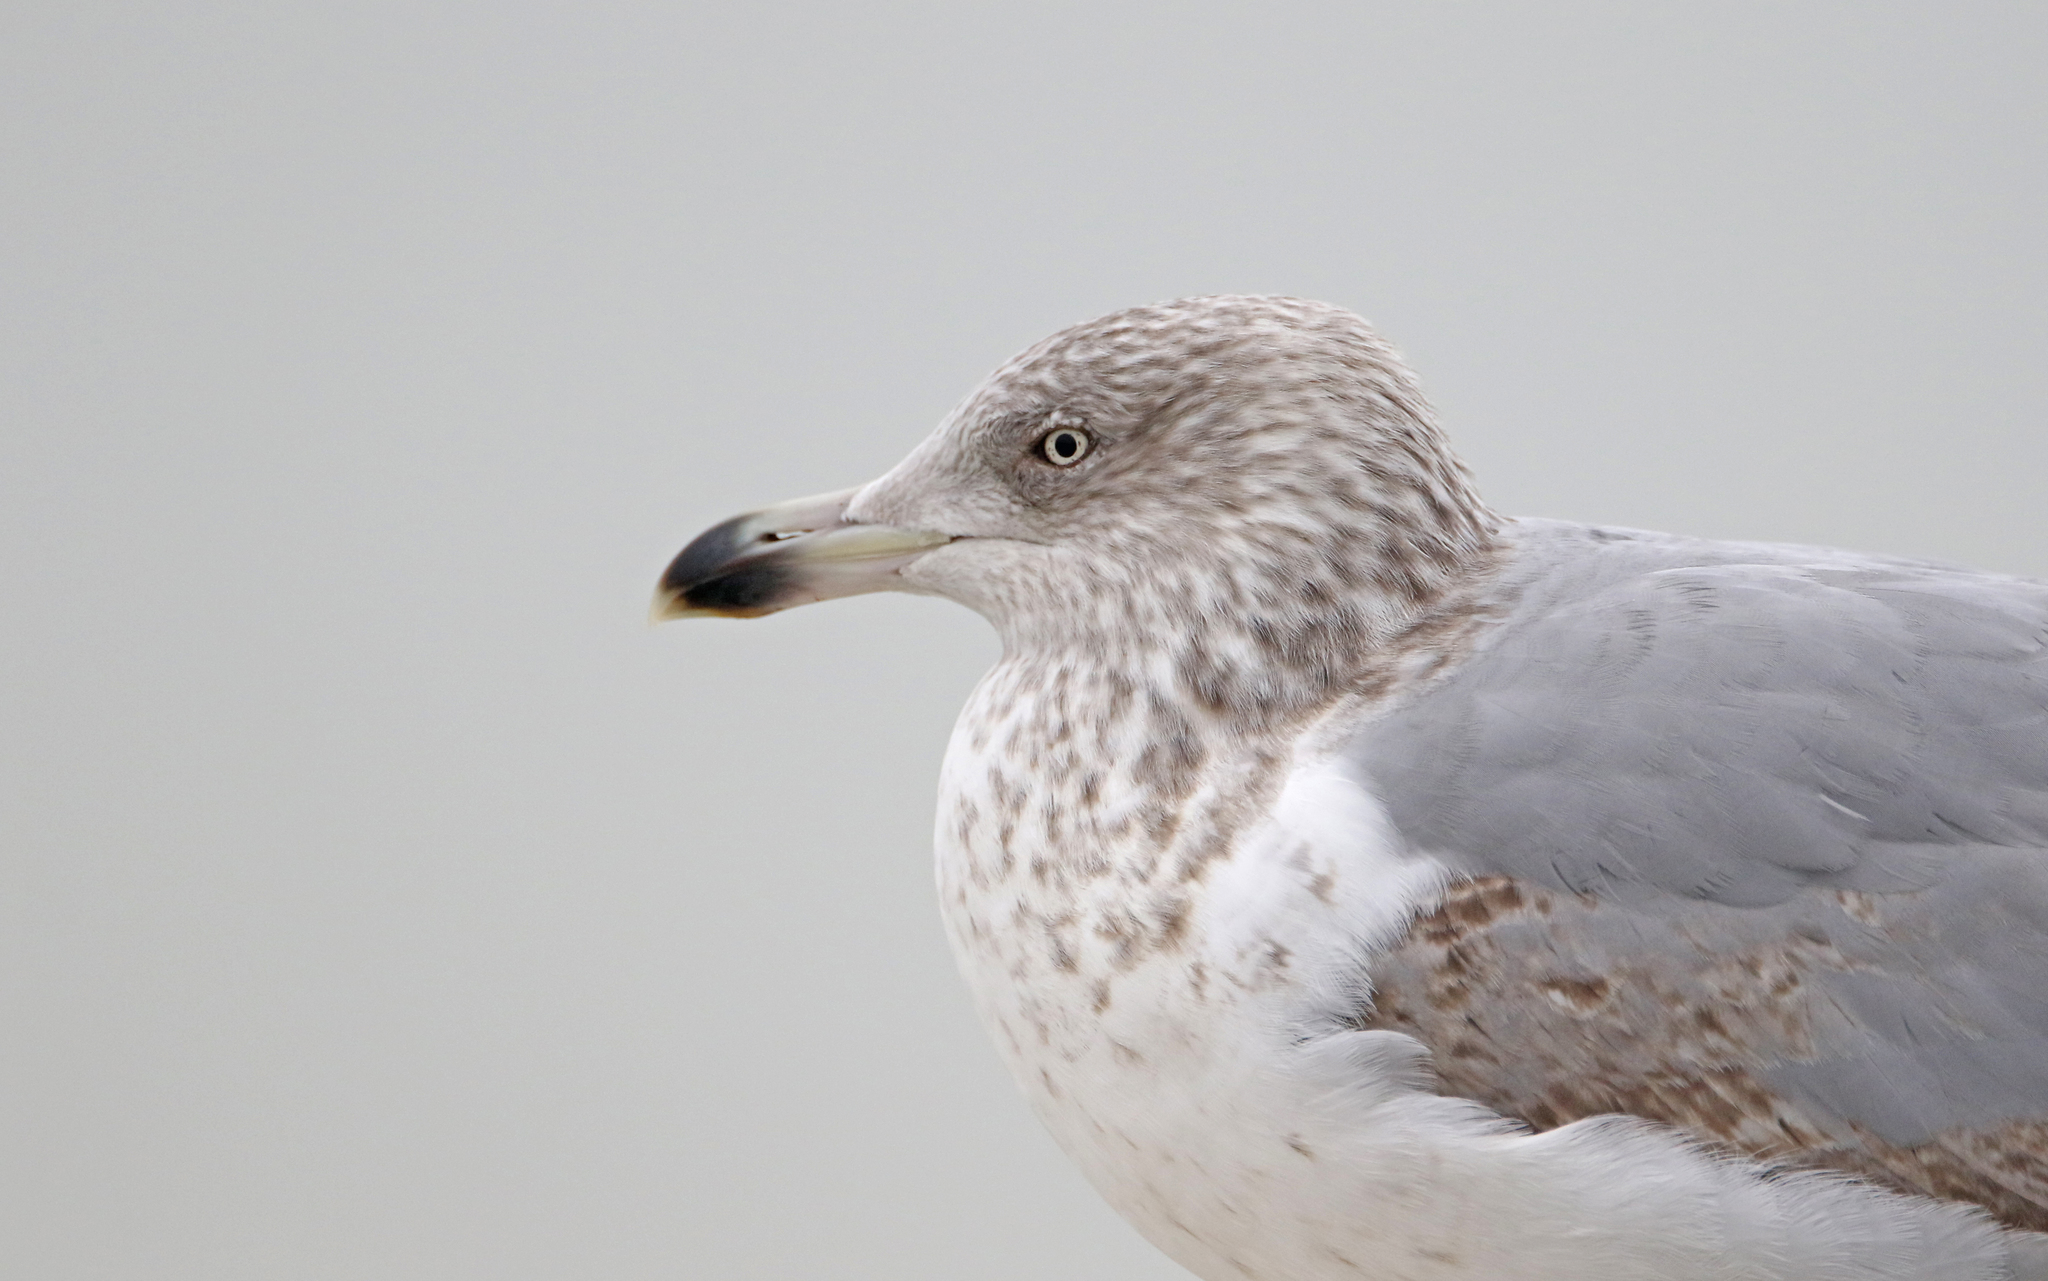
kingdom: Animalia
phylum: Chordata
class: Aves
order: Charadriiformes
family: Laridae
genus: Larus
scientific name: Larus argentatus
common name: Herring gull
